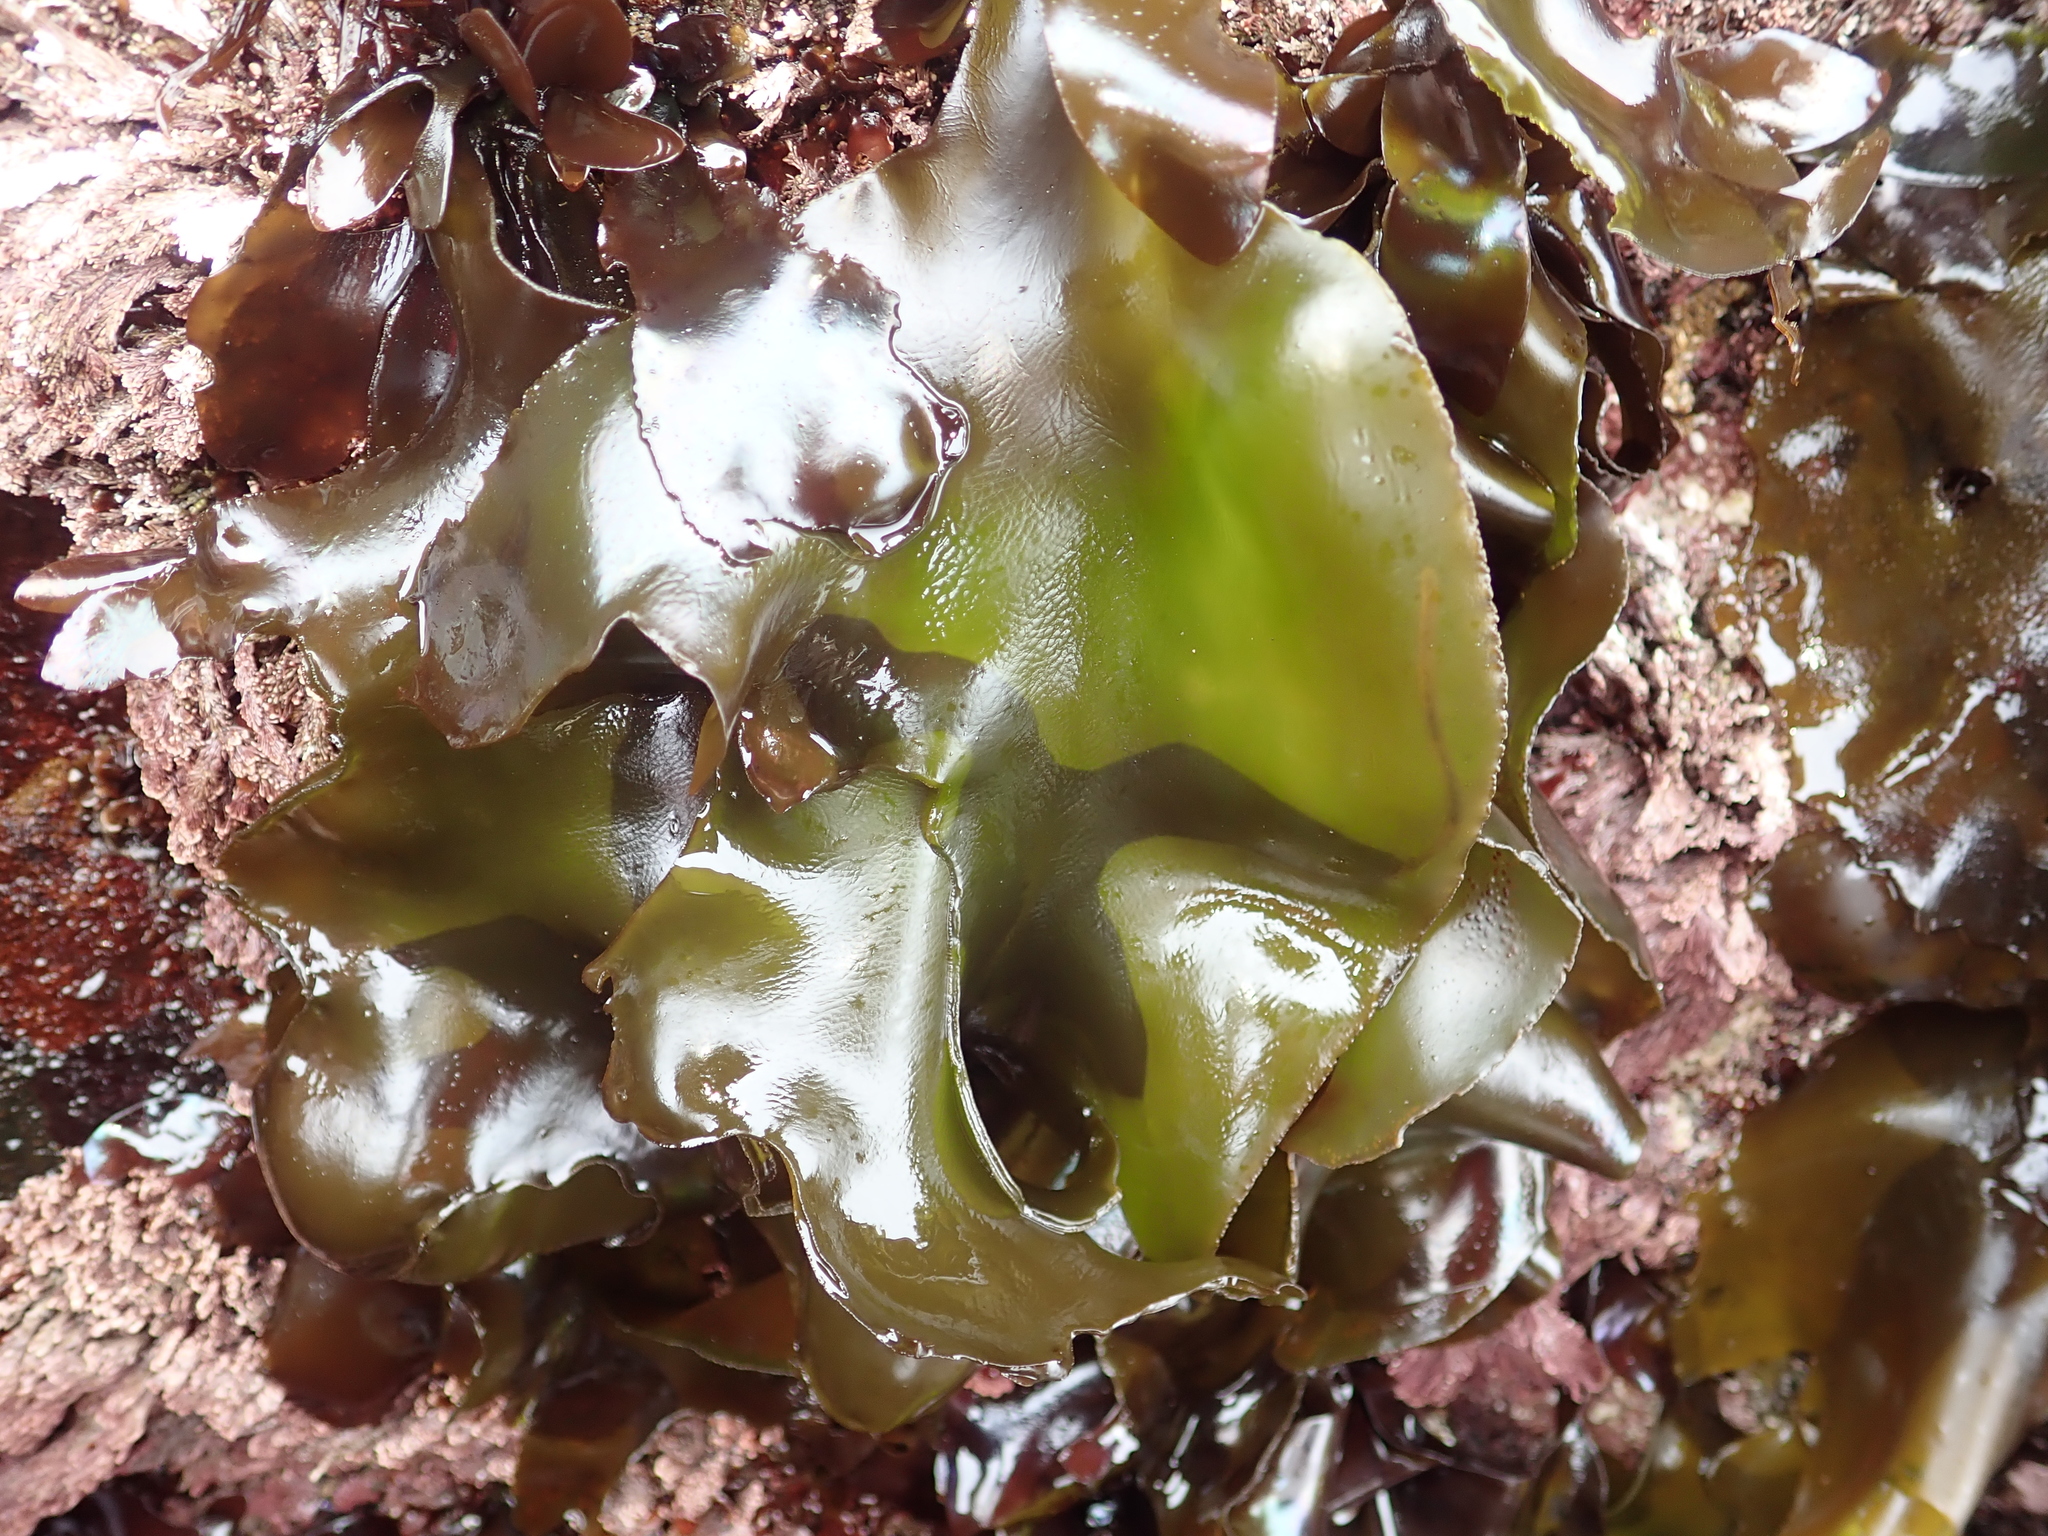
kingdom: Plantae
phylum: Rhodophyta
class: Florideophyceae
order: Gigartinales
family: Gigartinaceae
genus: Mazzaella
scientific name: Mazzaella flaccida
